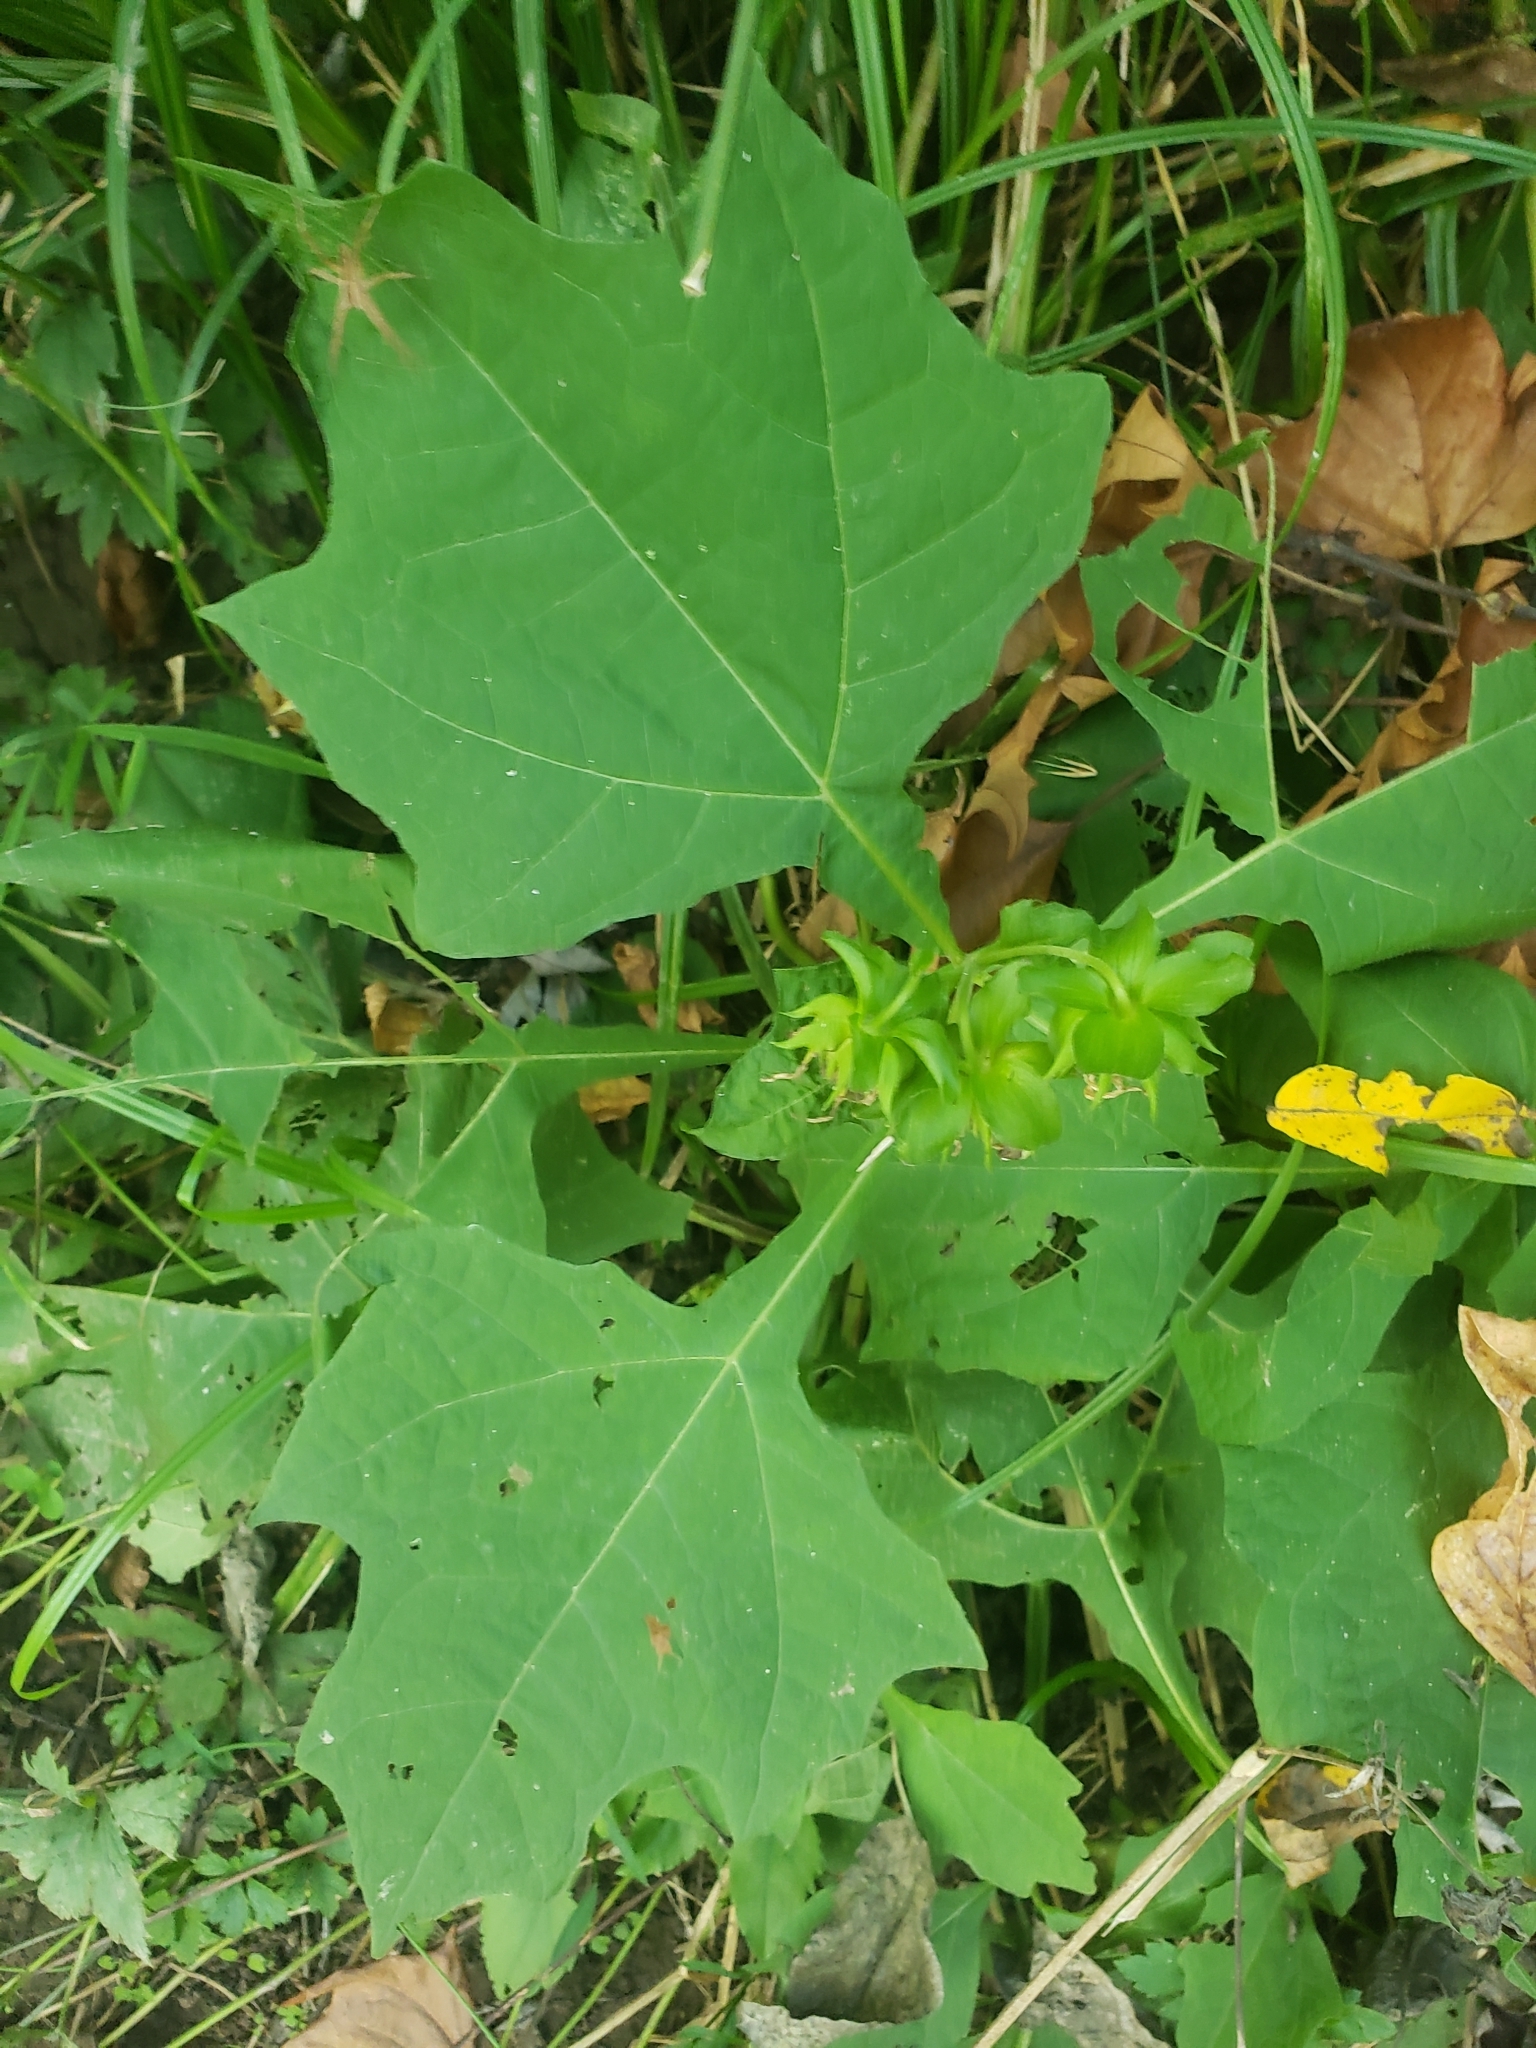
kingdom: Plantae
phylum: Tracheophyta
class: Magnoliopsida
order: Asterales
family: Asteraceae
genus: Smallanthus
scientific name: Smallanthus uvedalia
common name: Bear's-foot
